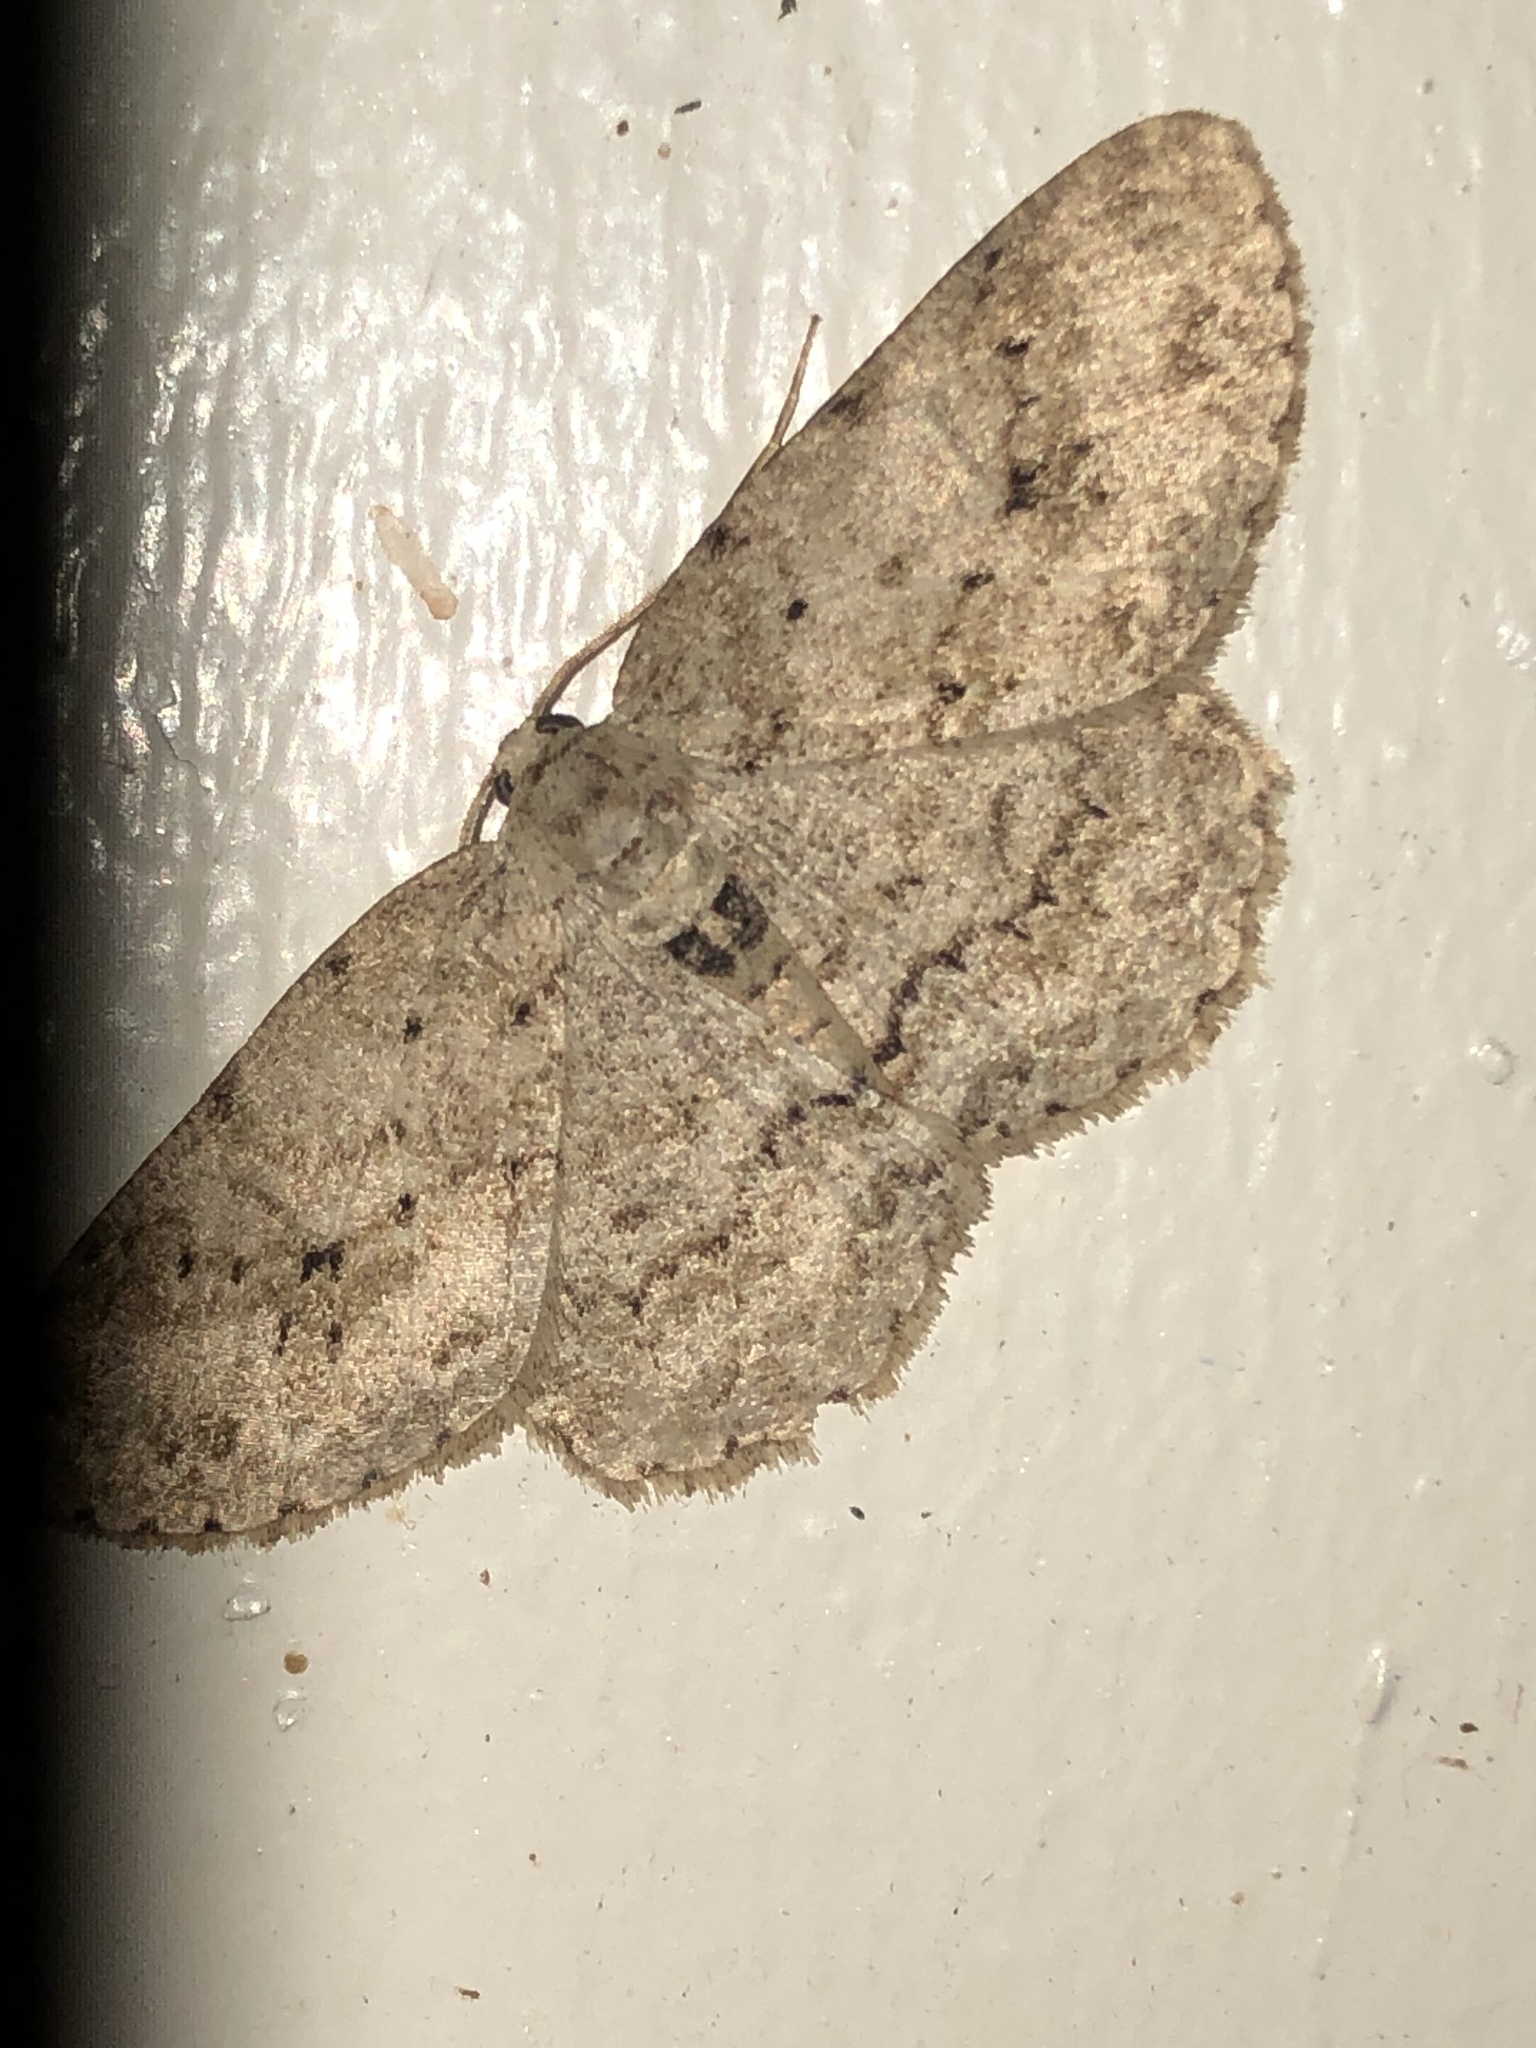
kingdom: Animalia
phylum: Arthropoda
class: Insecta
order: Lepidoptera
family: Geometridae
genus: Ectropis
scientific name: Ectropis crepuscularia
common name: Engrailed
